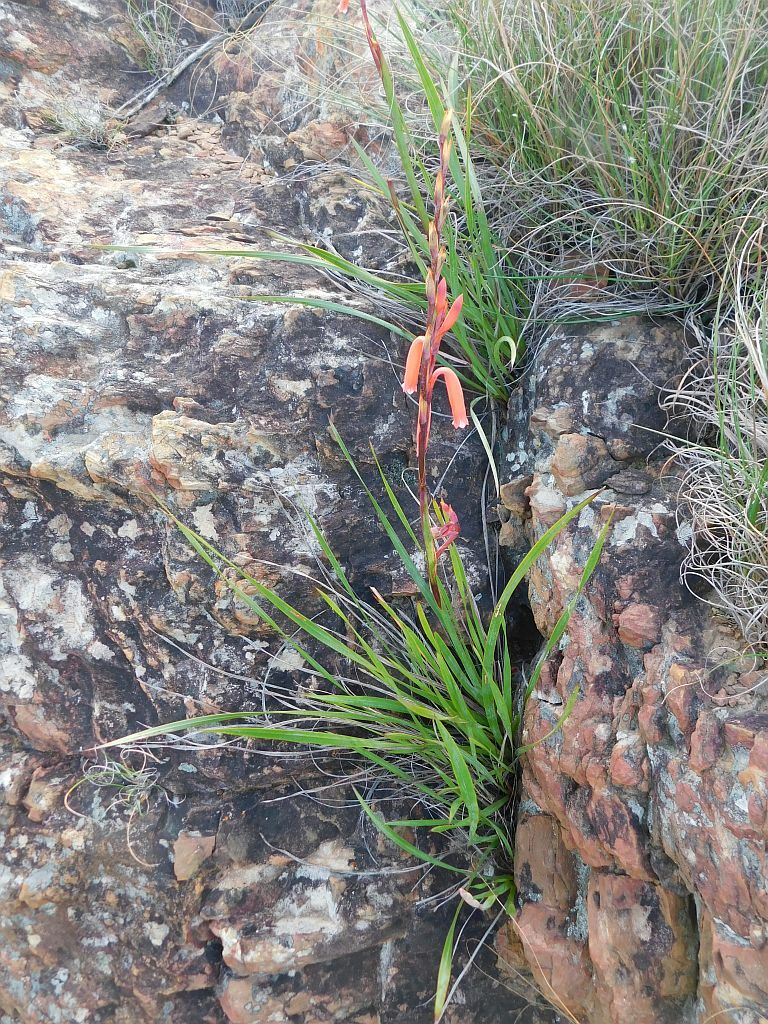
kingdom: Plantae
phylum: Tracheophyta
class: Liliopsida
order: Asparagales
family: Iridaceae
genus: Watsonia
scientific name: Watsonia aletroides
